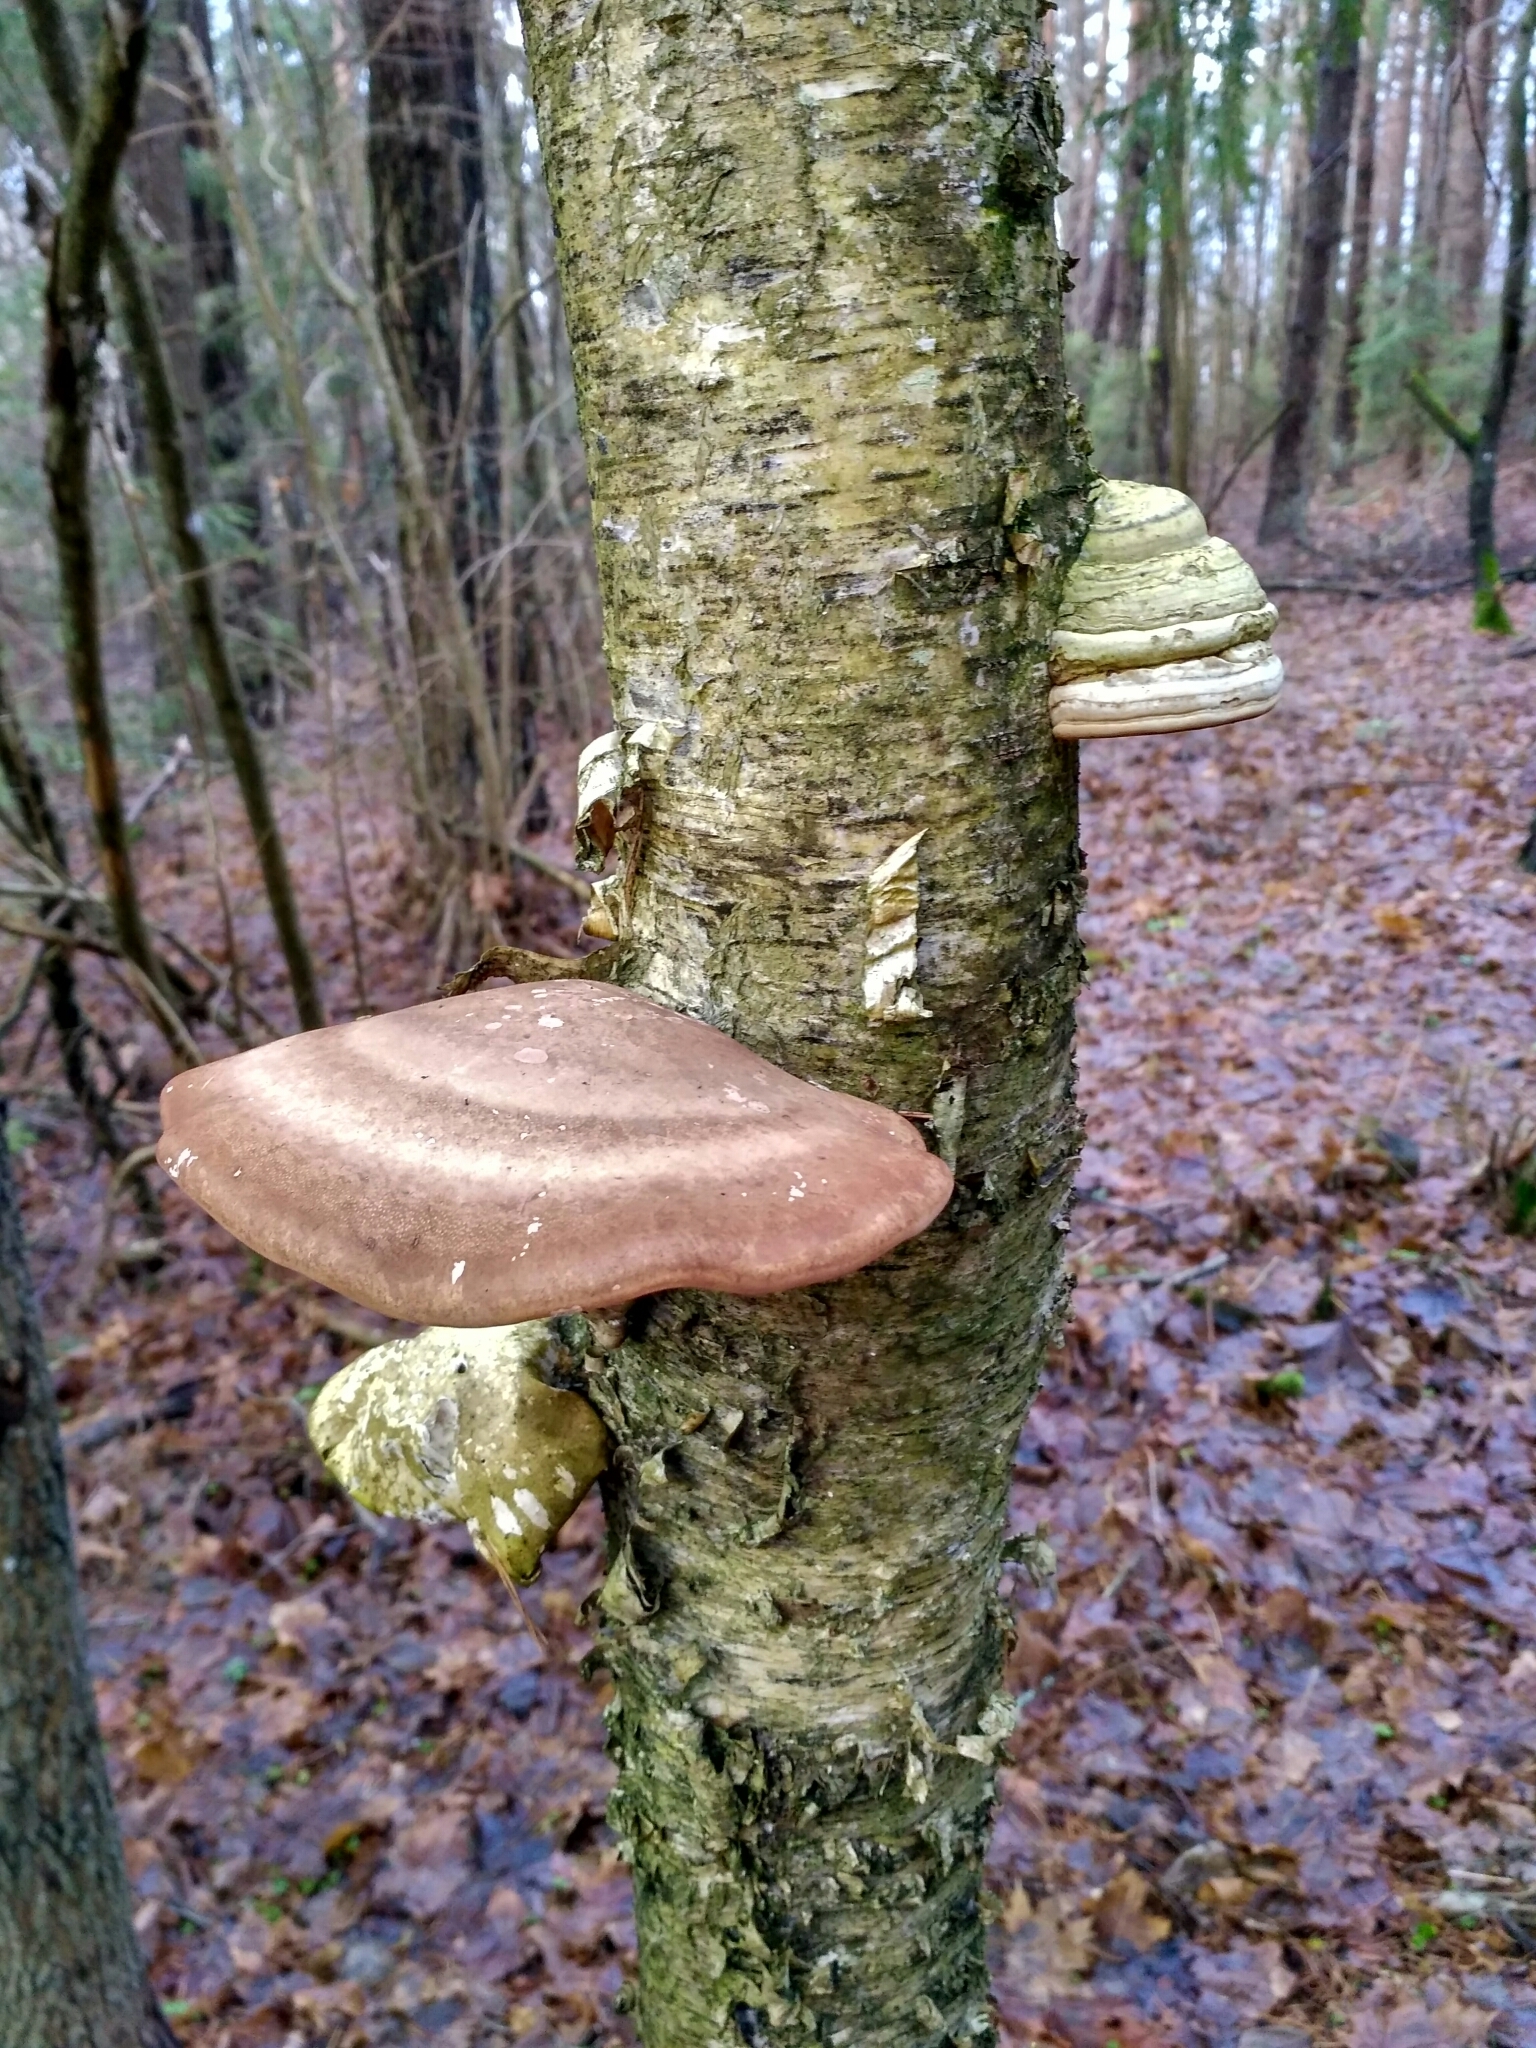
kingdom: Fungi
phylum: Basidiomycota
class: Agaricomycetes
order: Polyporales
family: Fomitopsidaceae
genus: Fomitopsis
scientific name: Fomitopsis betulina
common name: Birch polypore
